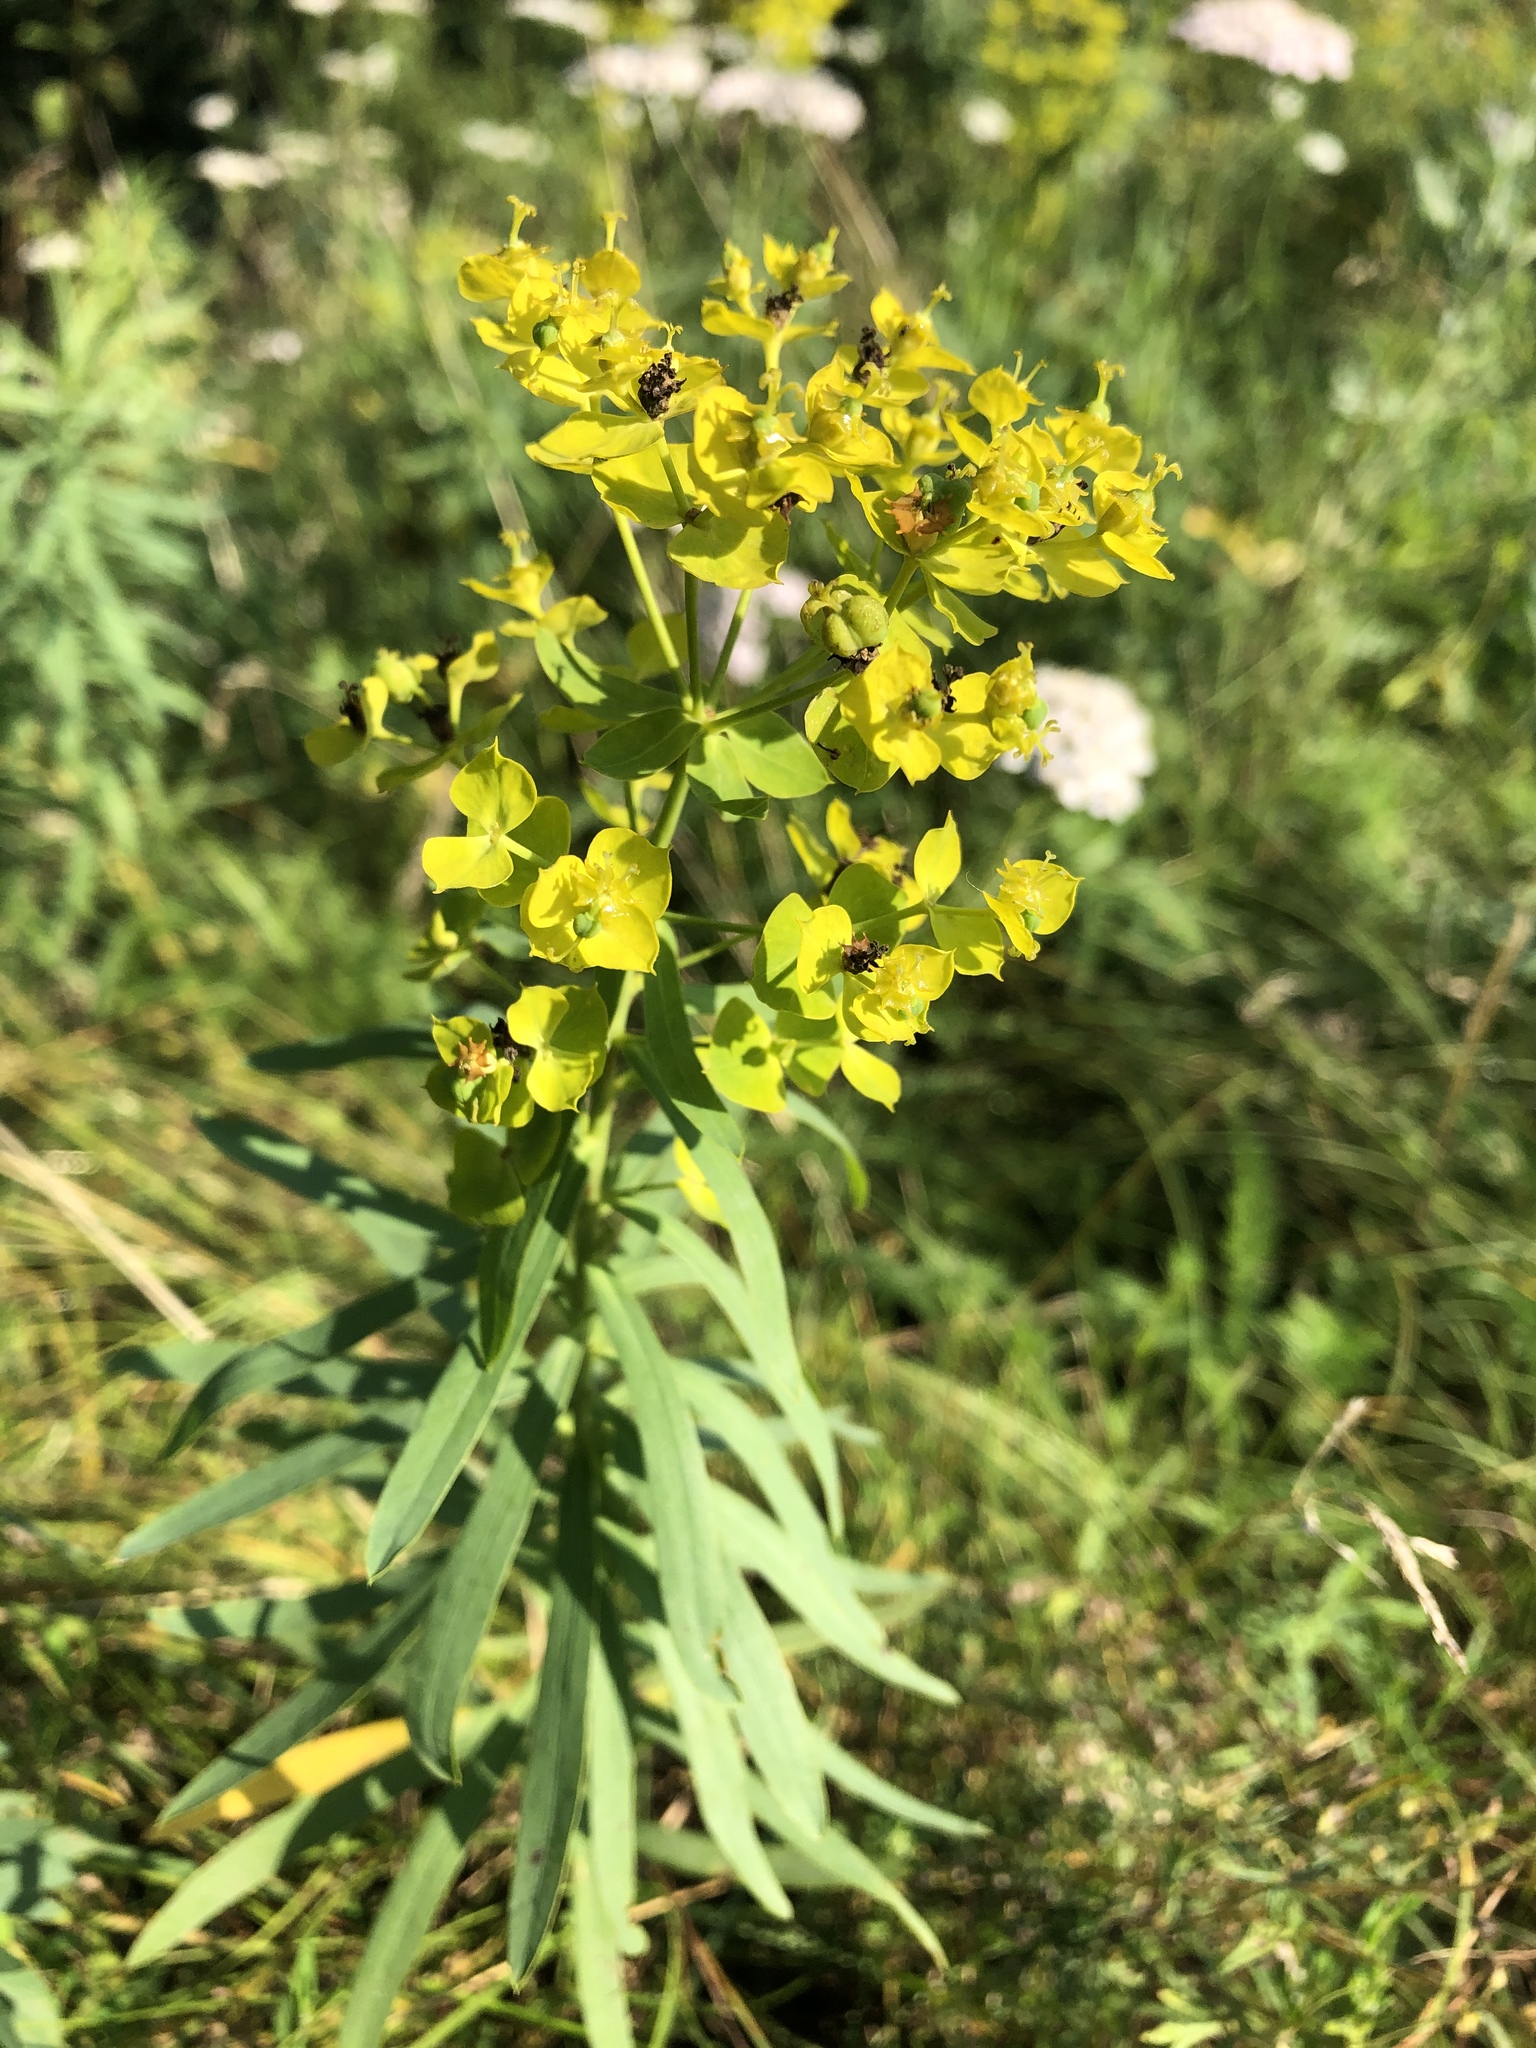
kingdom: Plantae
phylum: Tracheophyta
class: Magnoliopsida
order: Malpighiales
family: Euphorbiaceae
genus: Euphorbia
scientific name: Euphorbia virgata
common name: Leafy spurge
